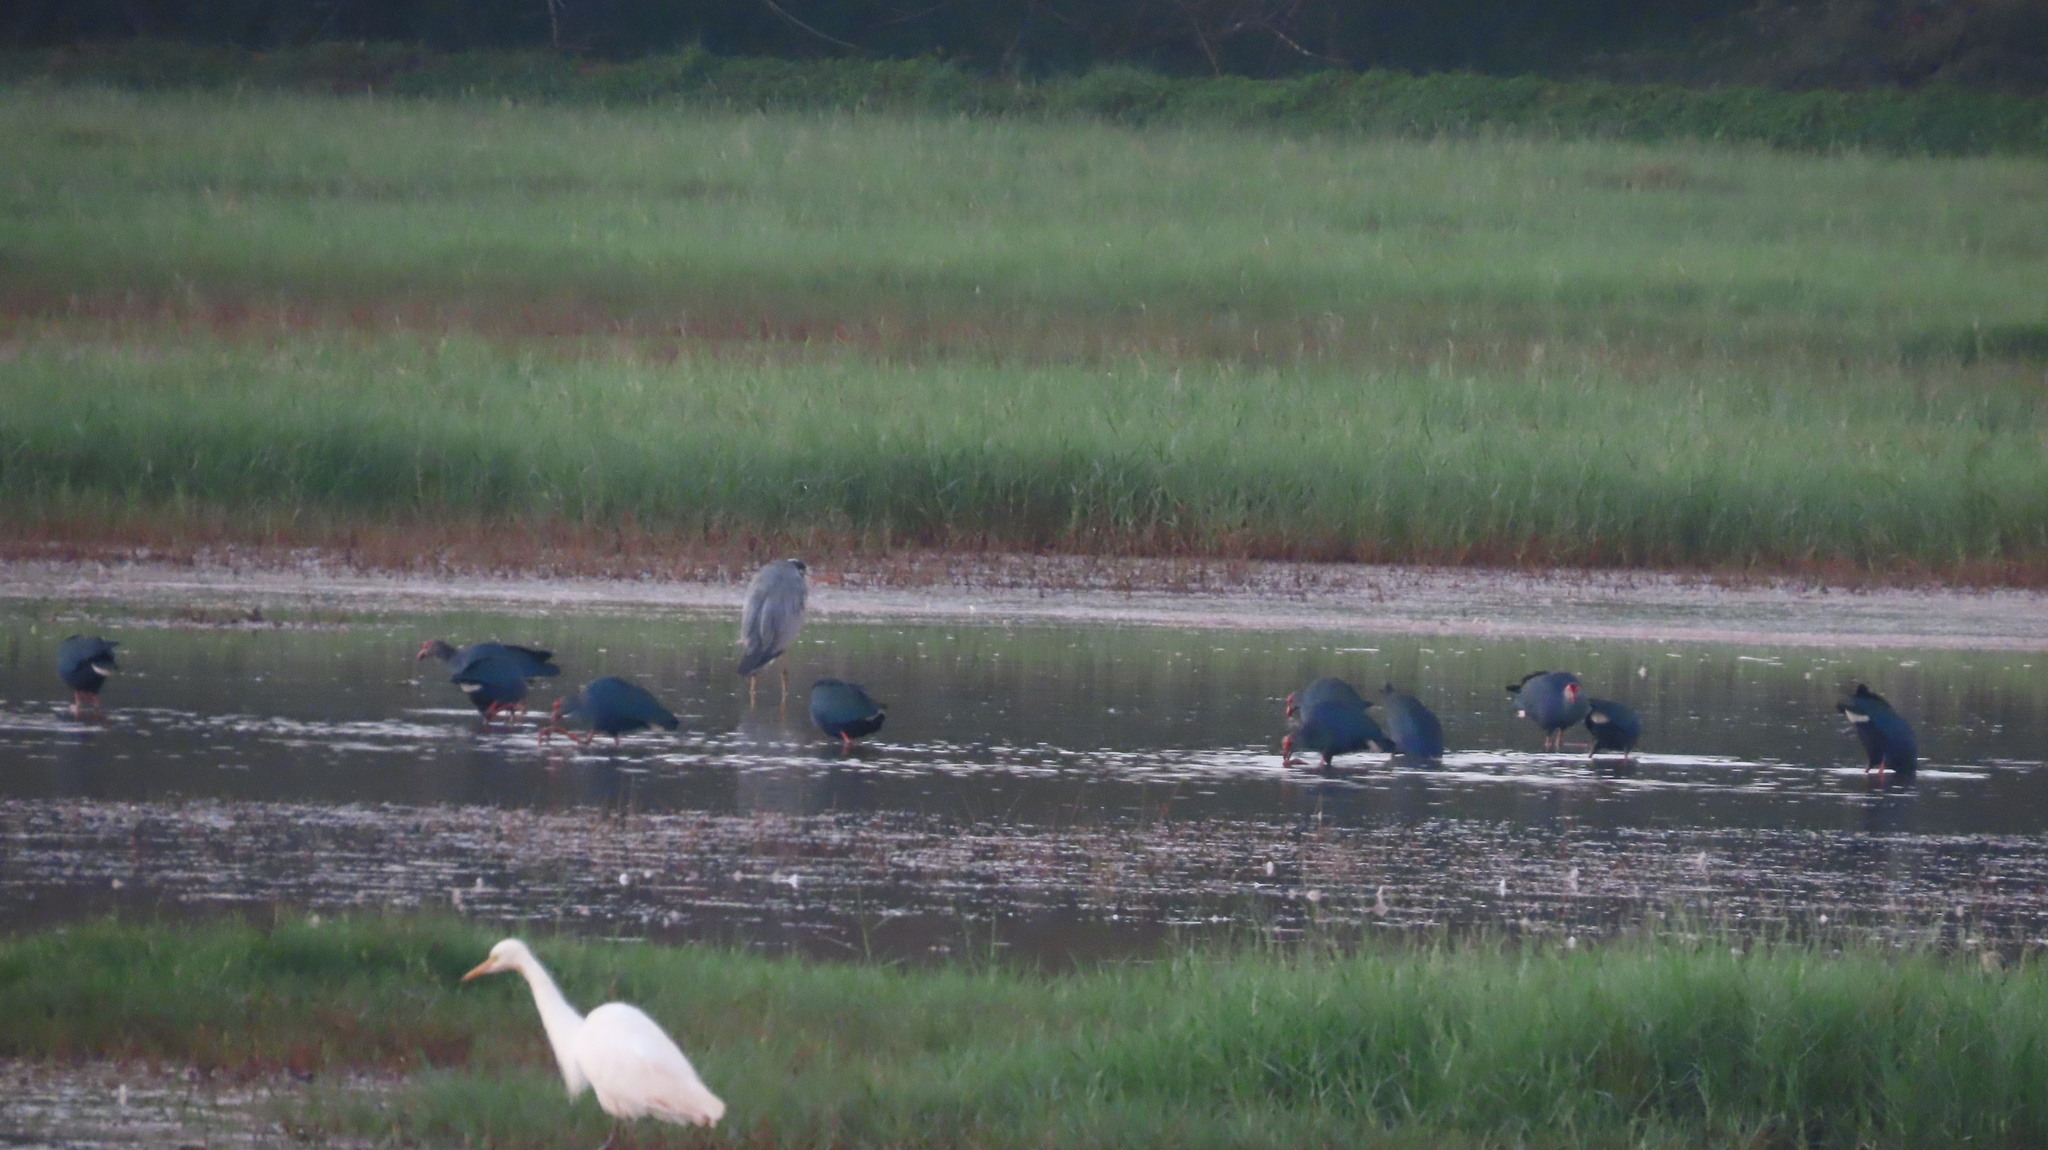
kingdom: Animalia
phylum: Chordata
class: Aves
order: Pelecaniformes
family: Ardeidae
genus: Ardea
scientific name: Ardea cinerea
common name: Grey heron
